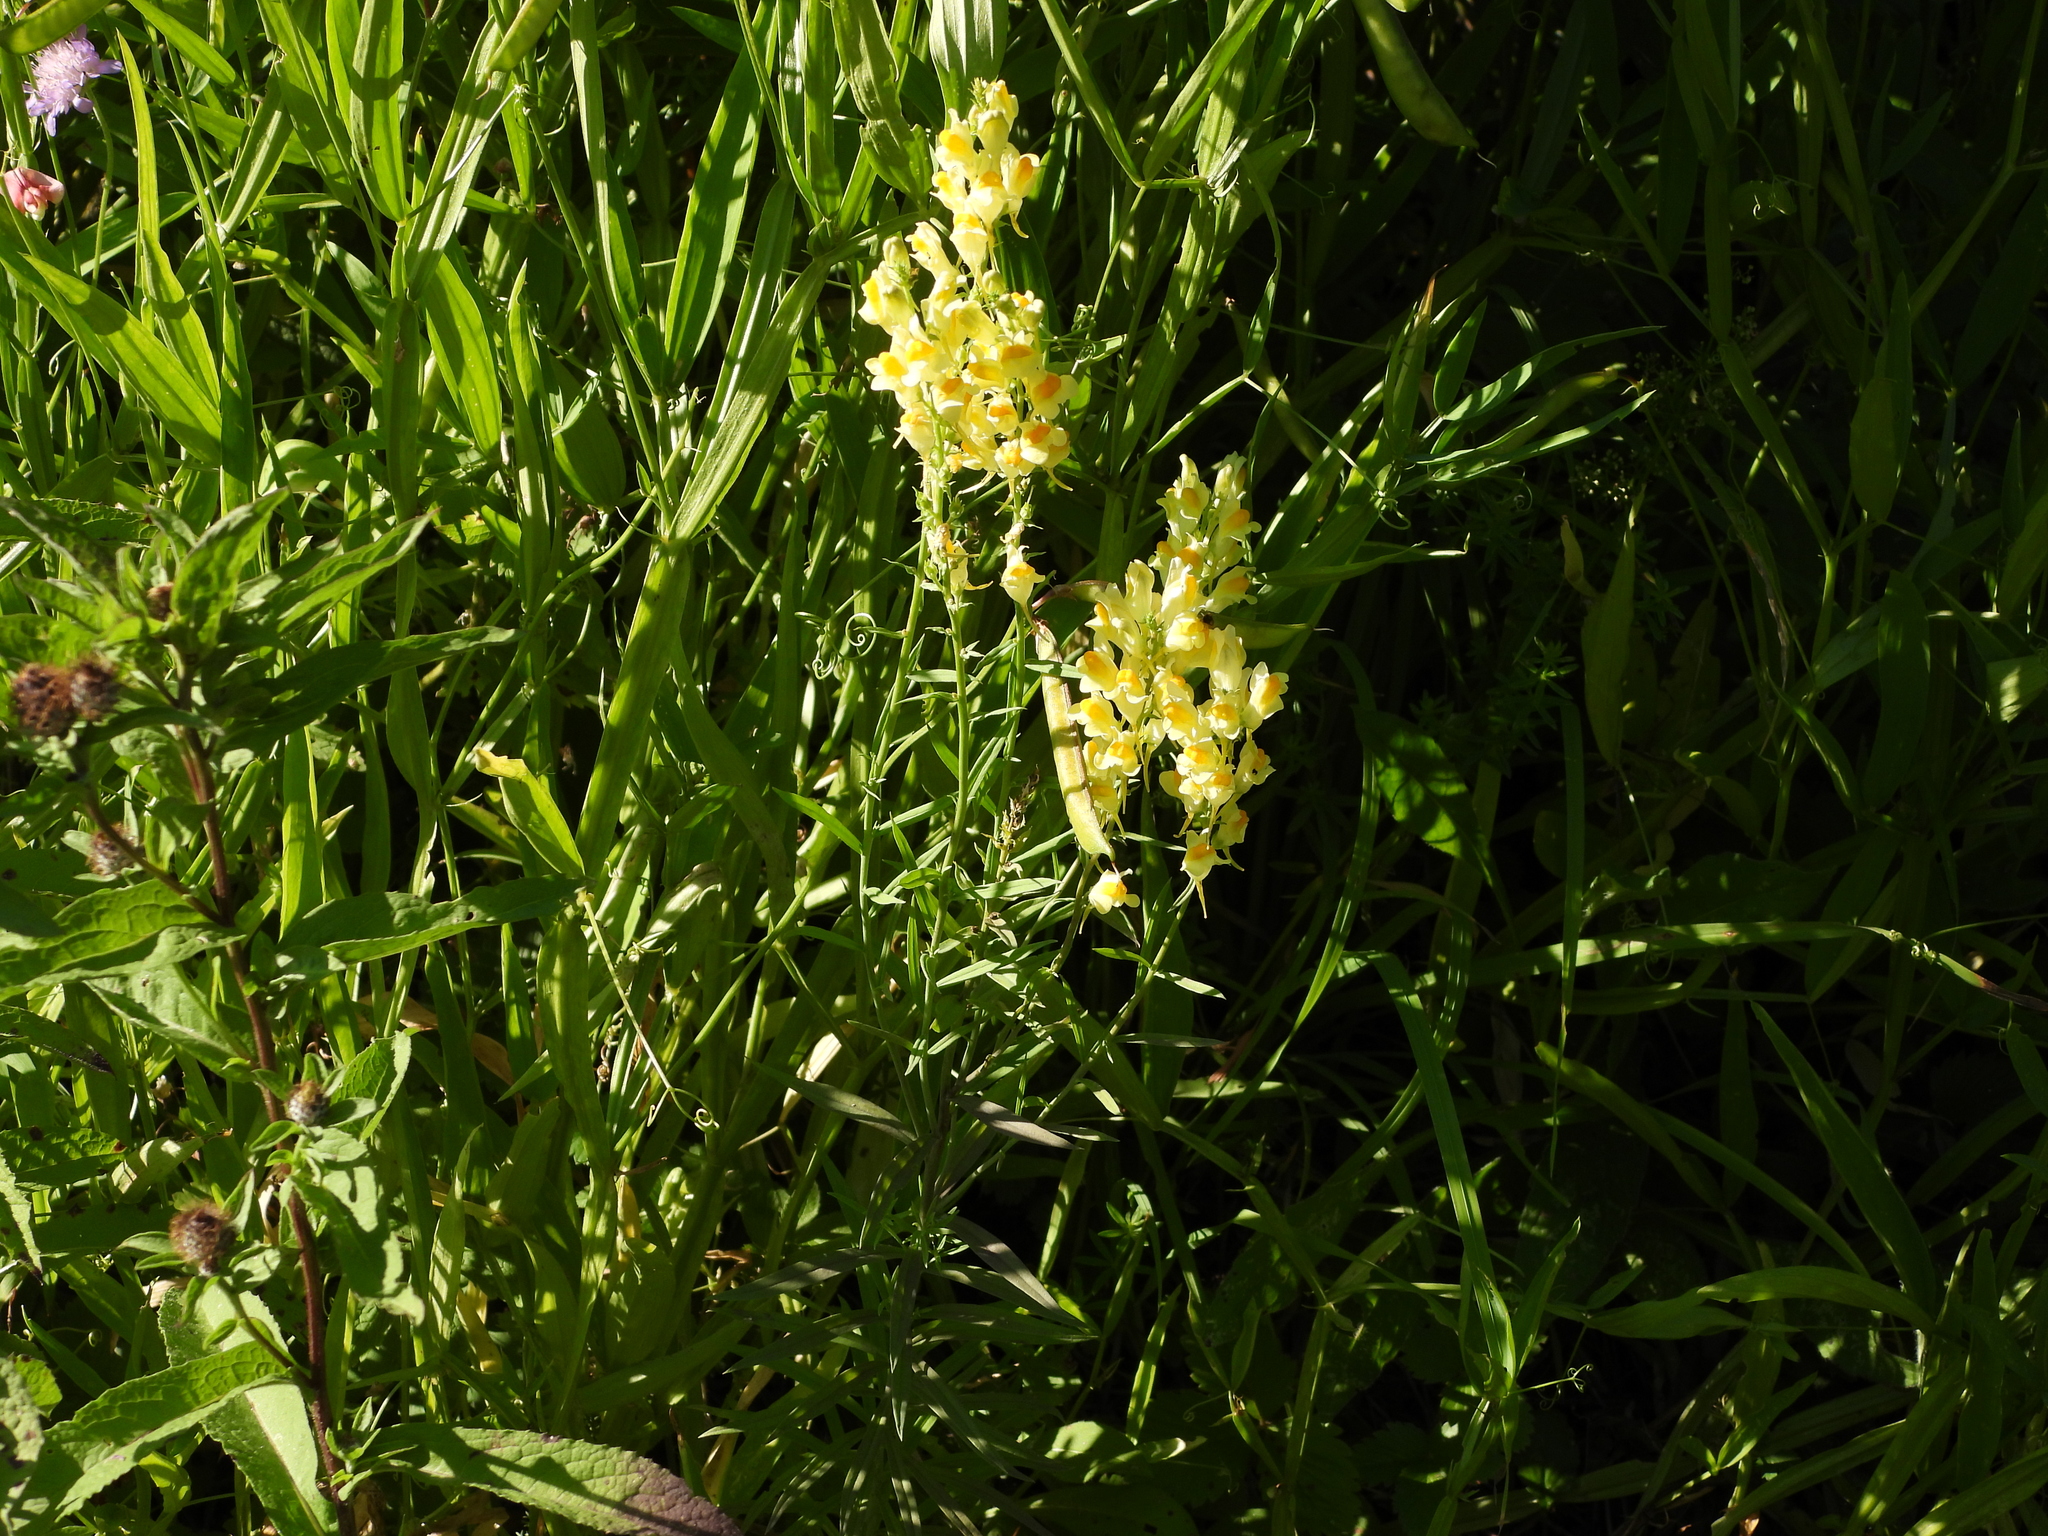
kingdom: Plantae
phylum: Tracheophyta
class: Magnoliopsida
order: Lamiales
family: Plantaginaceae
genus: Linaria
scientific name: Linaria vulgaris
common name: Butter and eggs
